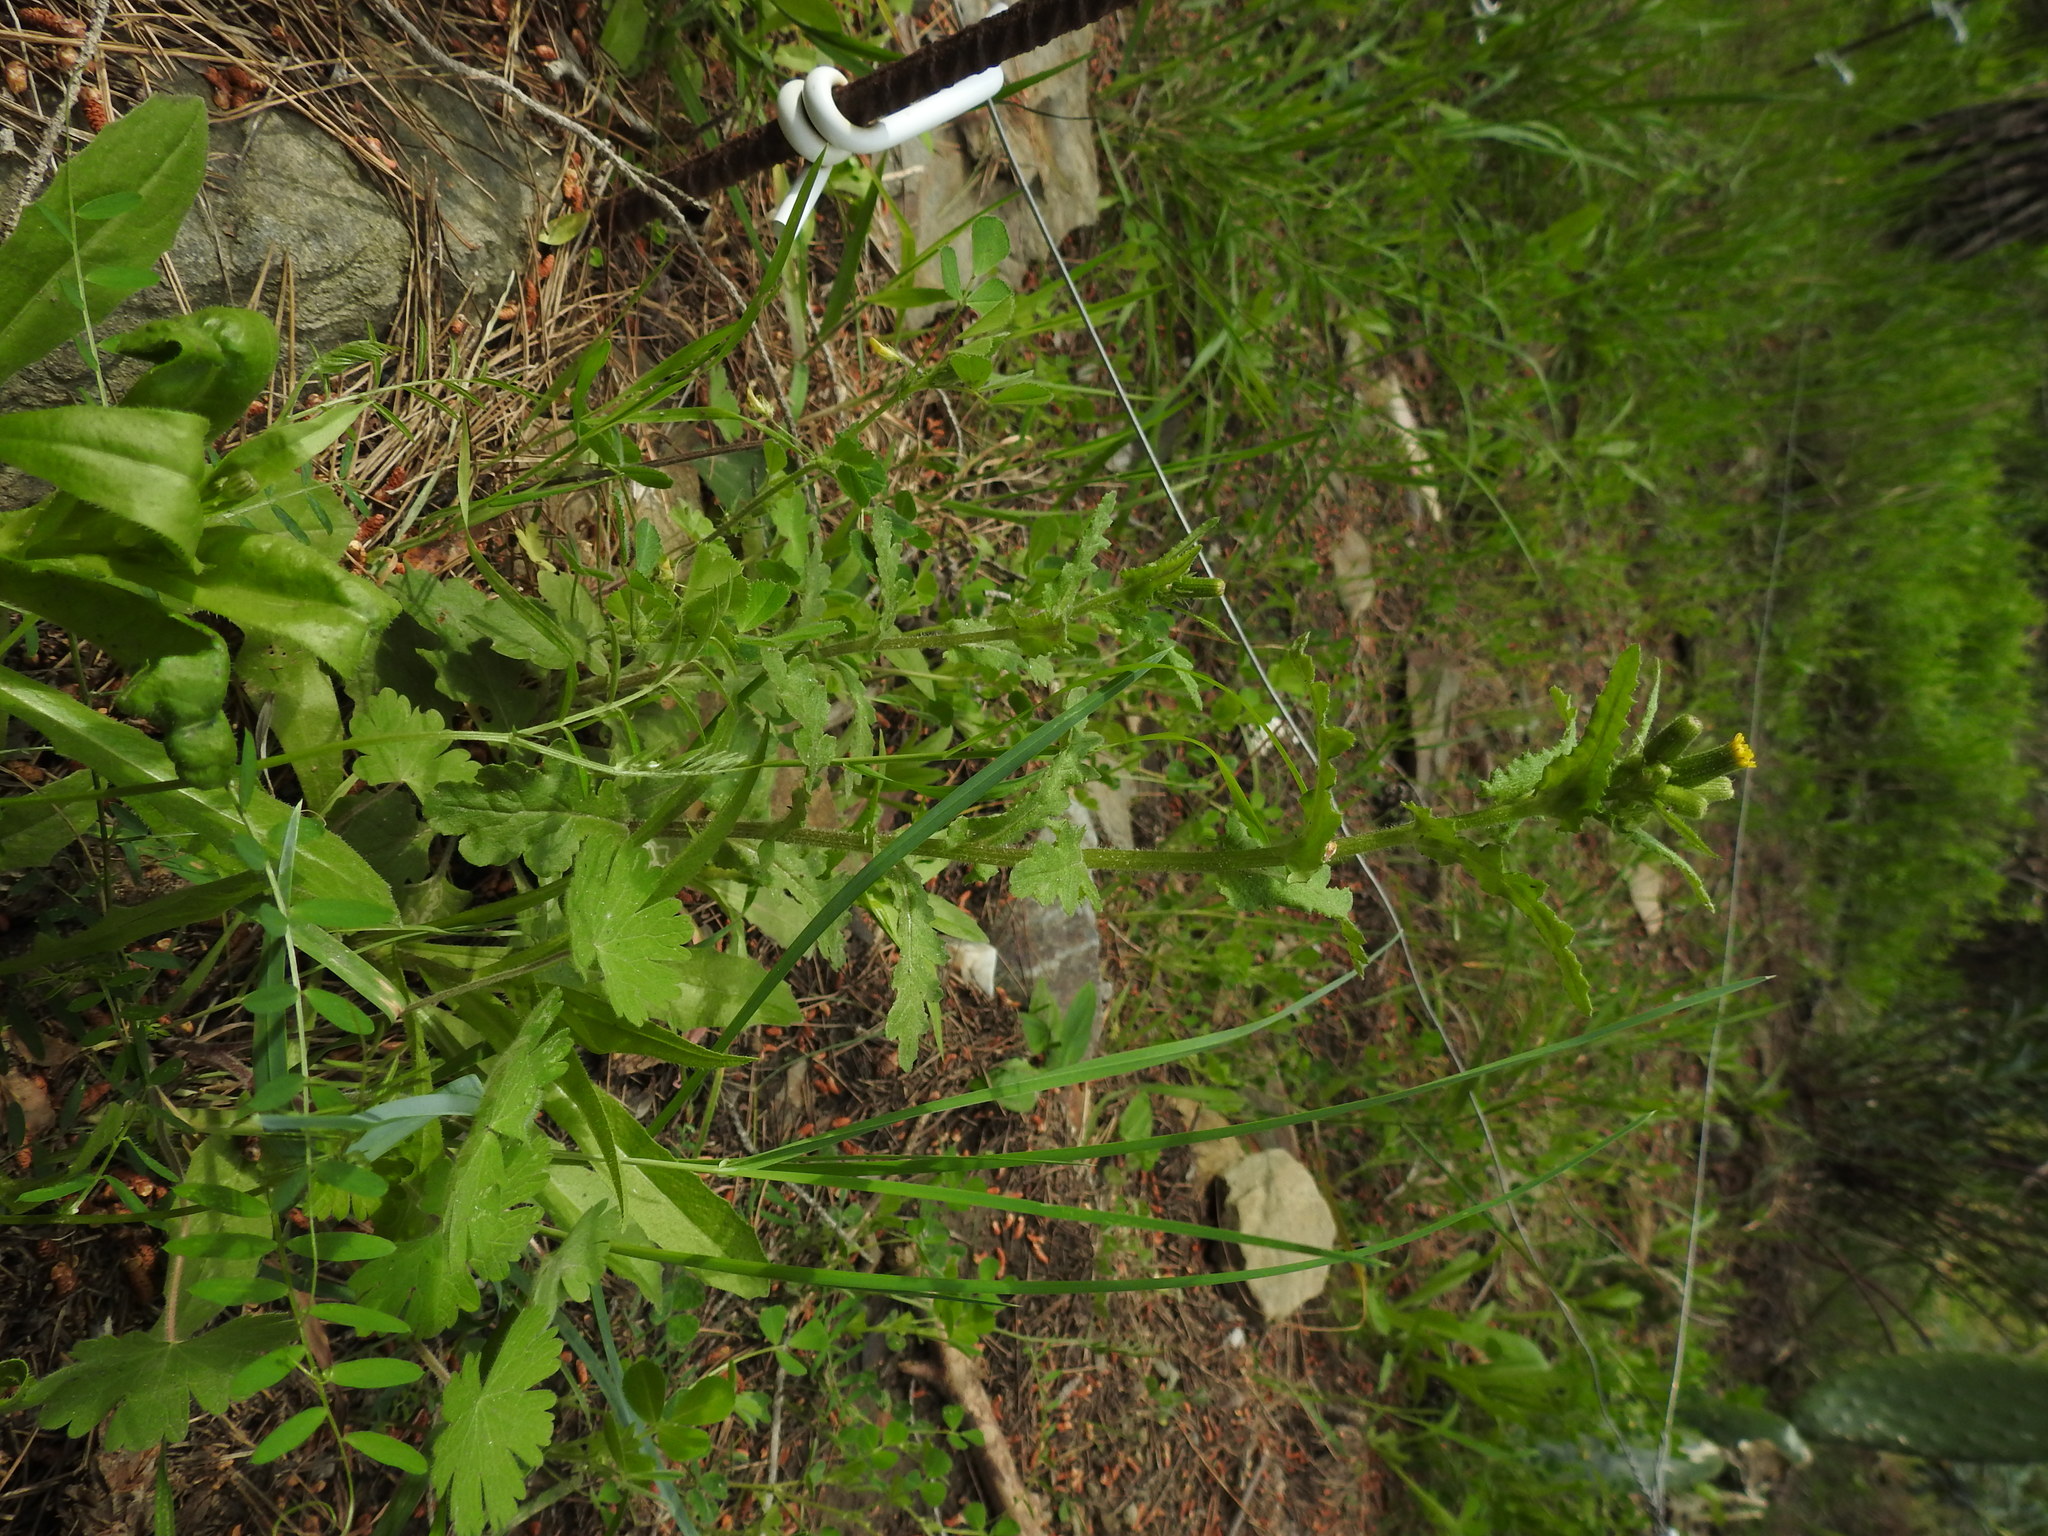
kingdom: Plantae
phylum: Tracheophyta
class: Magnoliopsida
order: Asterales
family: Asteraceae
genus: Senecio
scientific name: Senecio lividus
